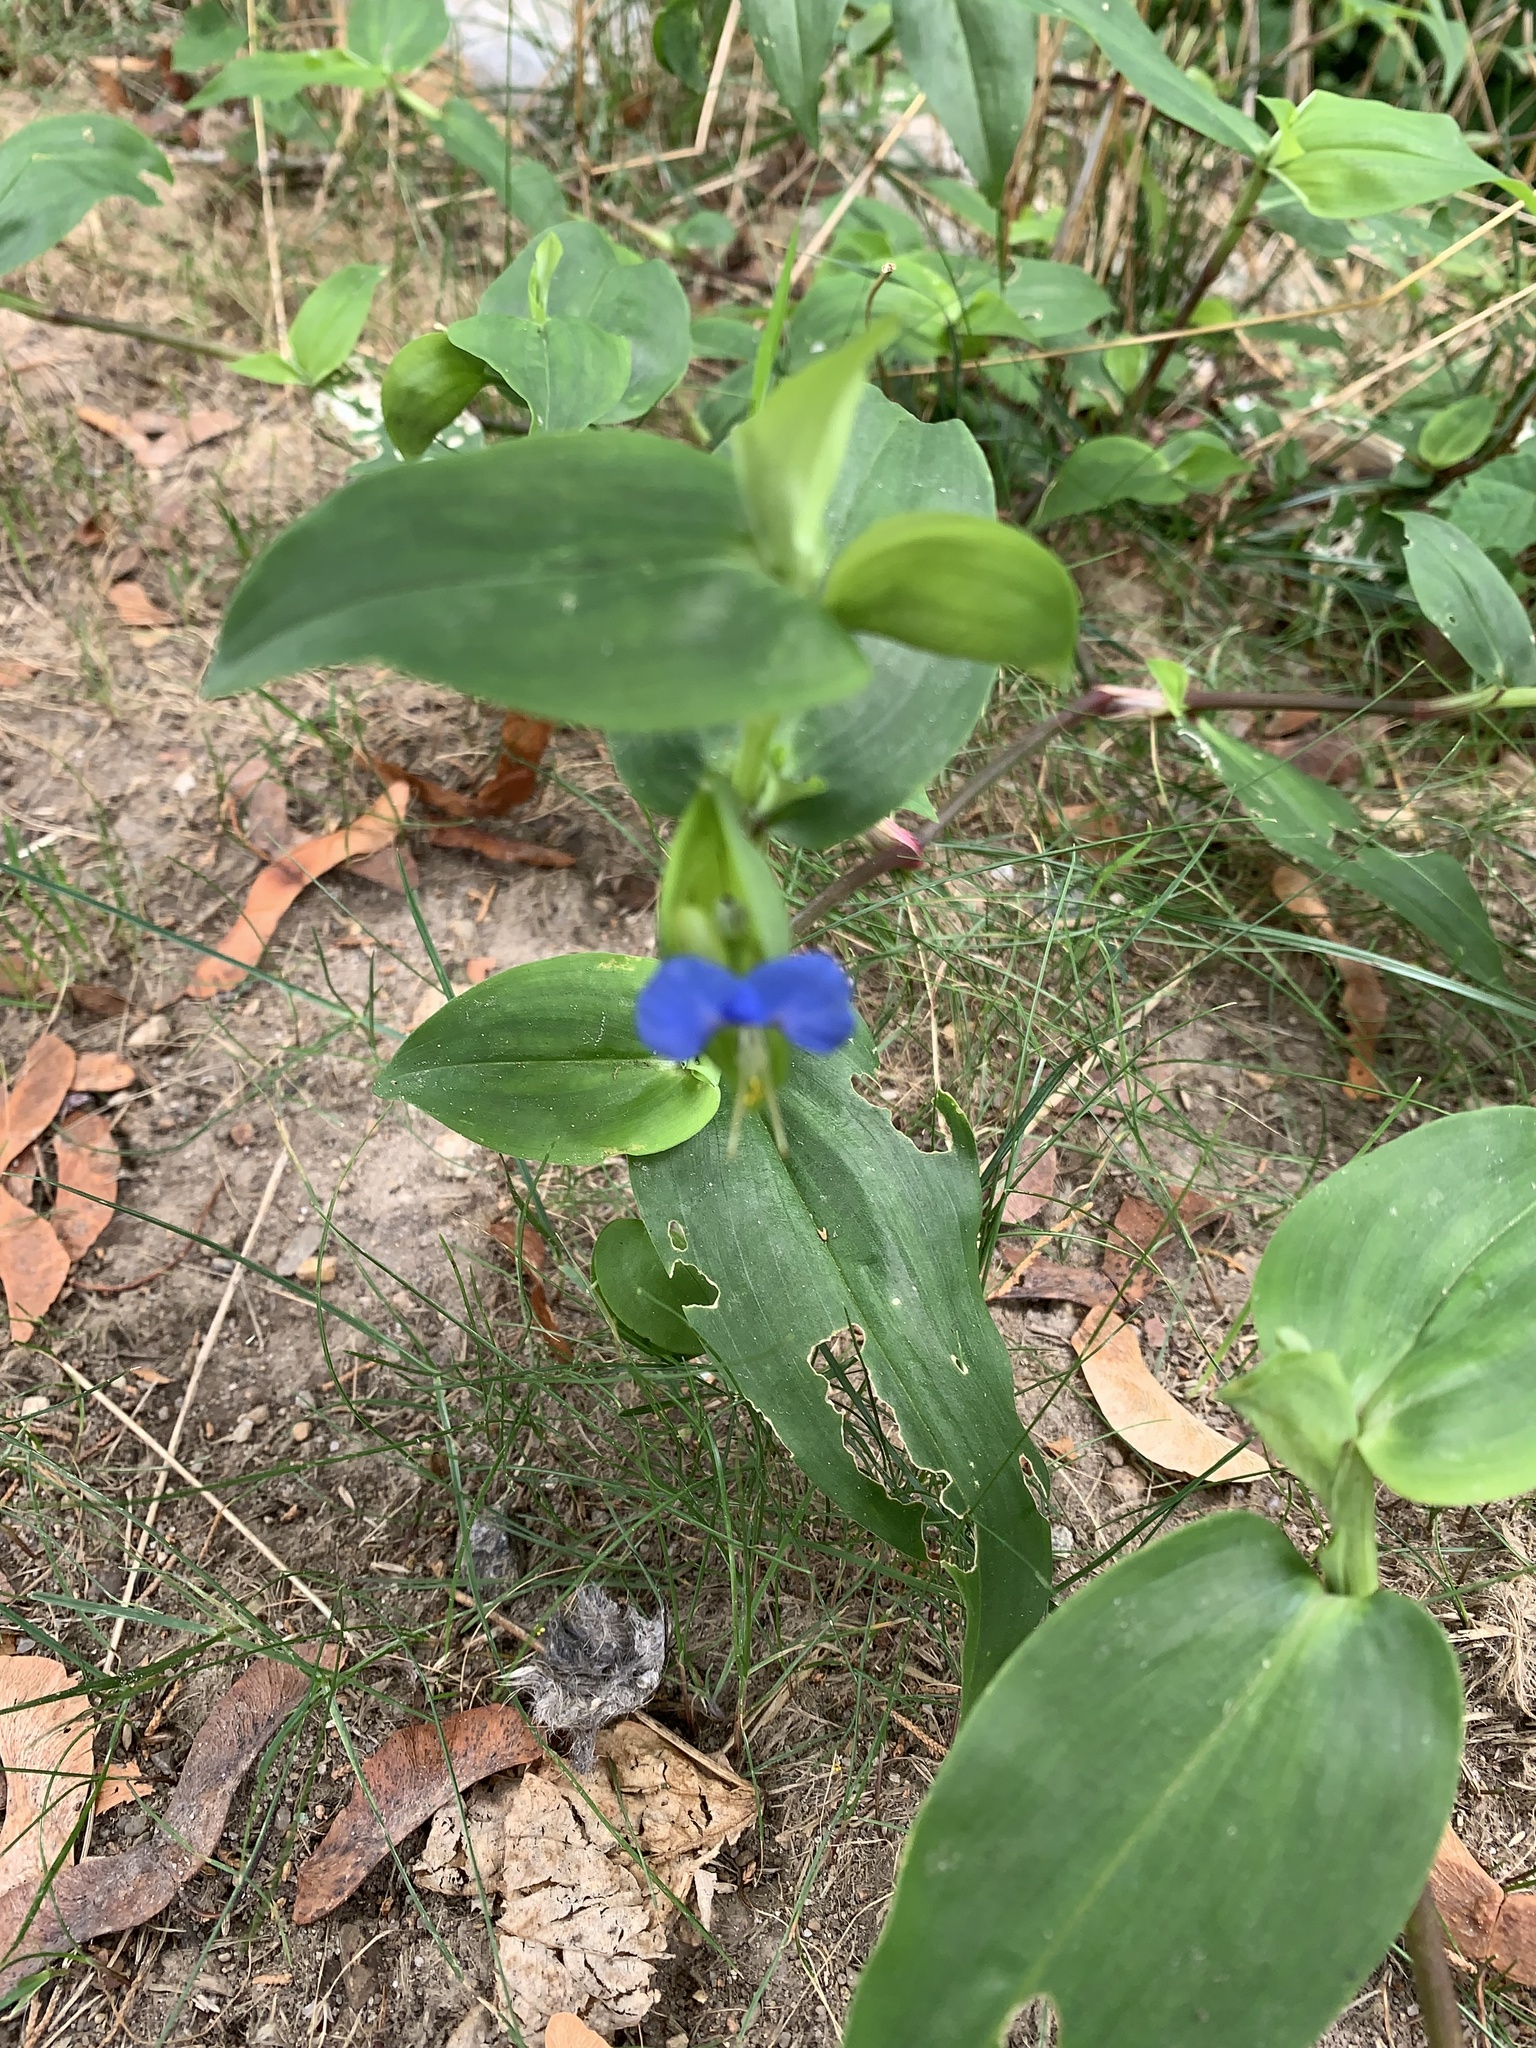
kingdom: Plantae
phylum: Tracheophyta
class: Liliopsida
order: Commelinales
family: Commelinaceae
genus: Commelina
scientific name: Commelina communis
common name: Asiatic dayflower
